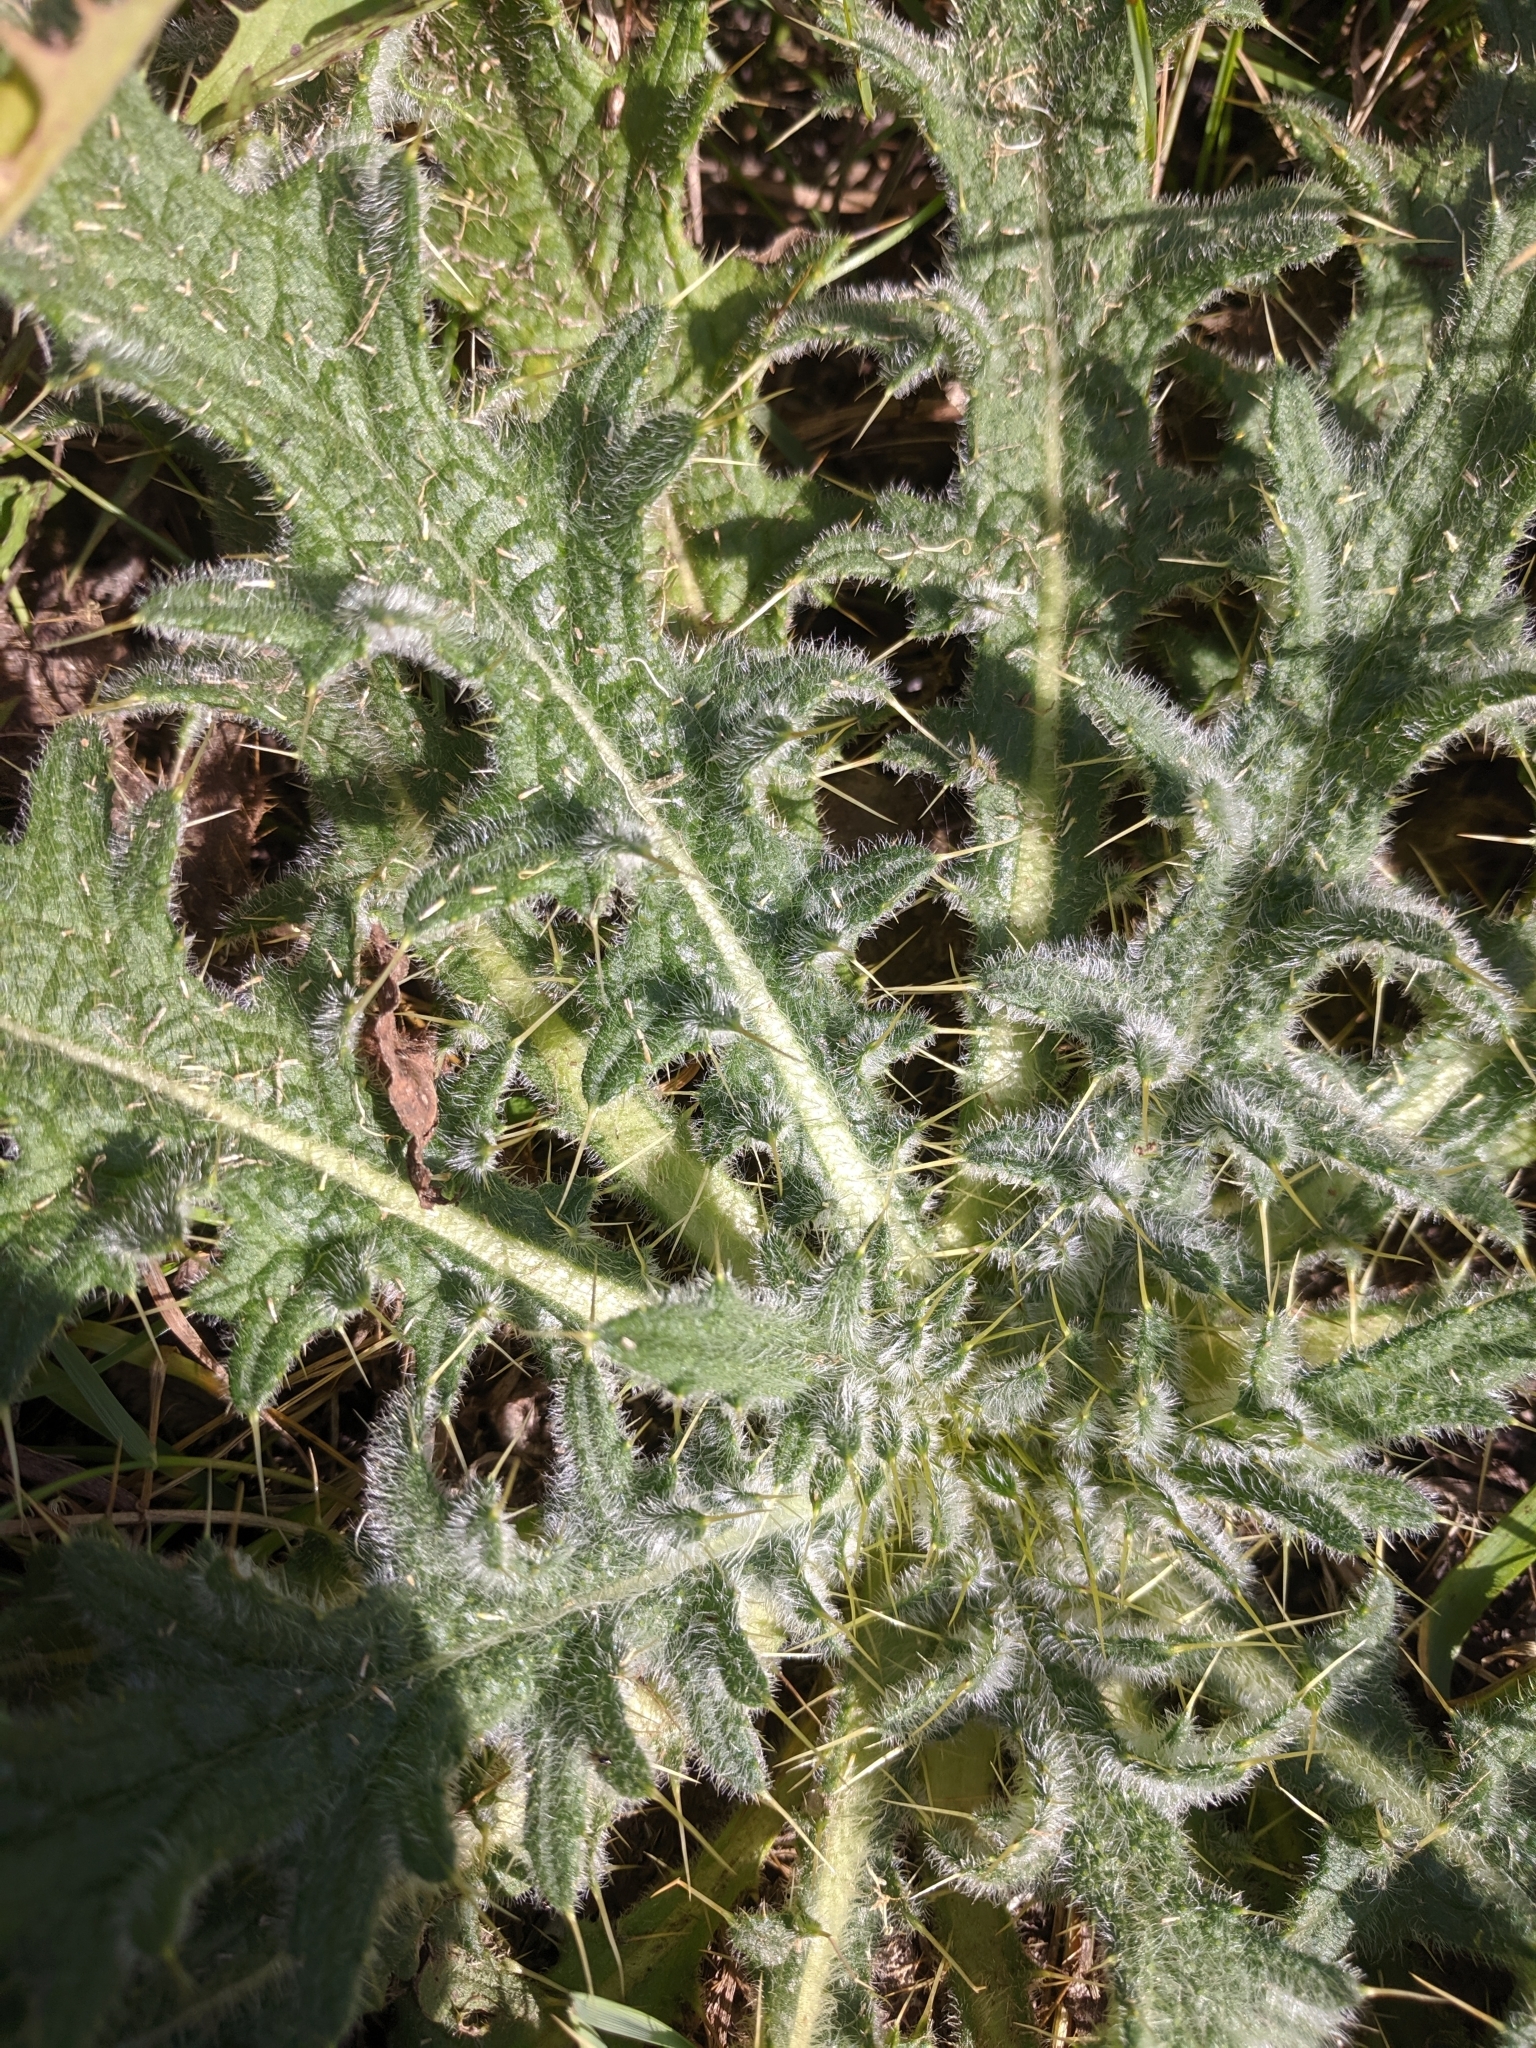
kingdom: Plantae
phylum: Tracheophyta
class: Magnoliopsida
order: Asterales
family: Asteraceae
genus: Cirsium
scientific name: Cirsium vulgare
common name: Bull thistle
